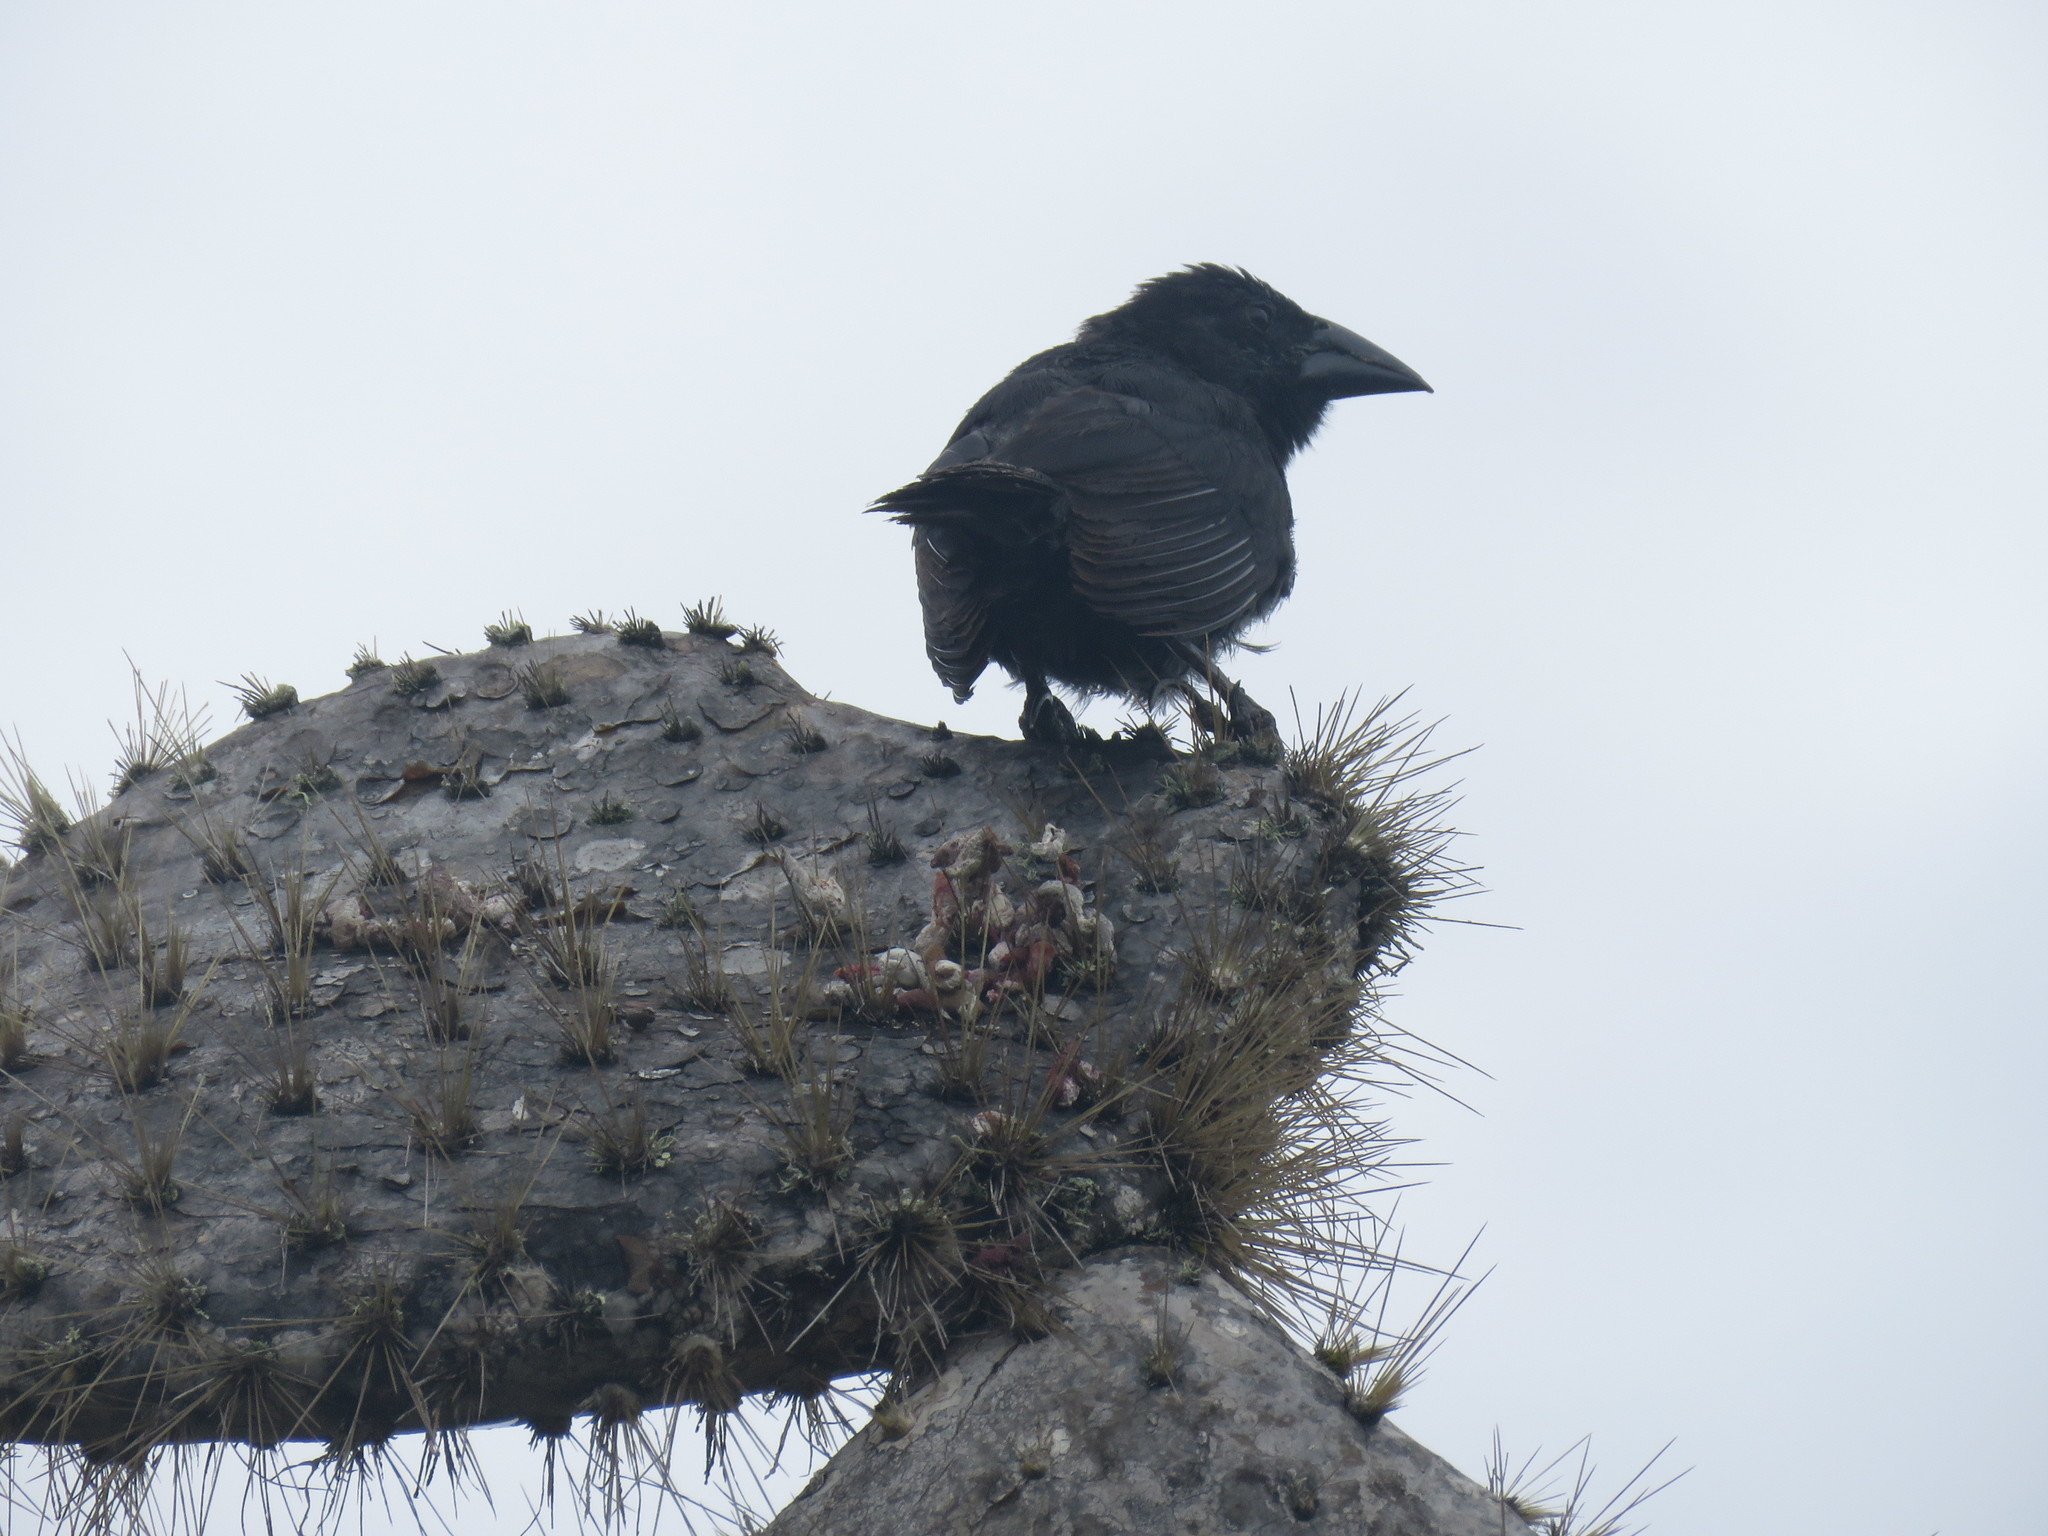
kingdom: Animalia
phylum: Chordata
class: Aves
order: Passeriformes
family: Thraupidae
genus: Geospiza
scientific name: Geospiza scandens
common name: Common cactus-finch
